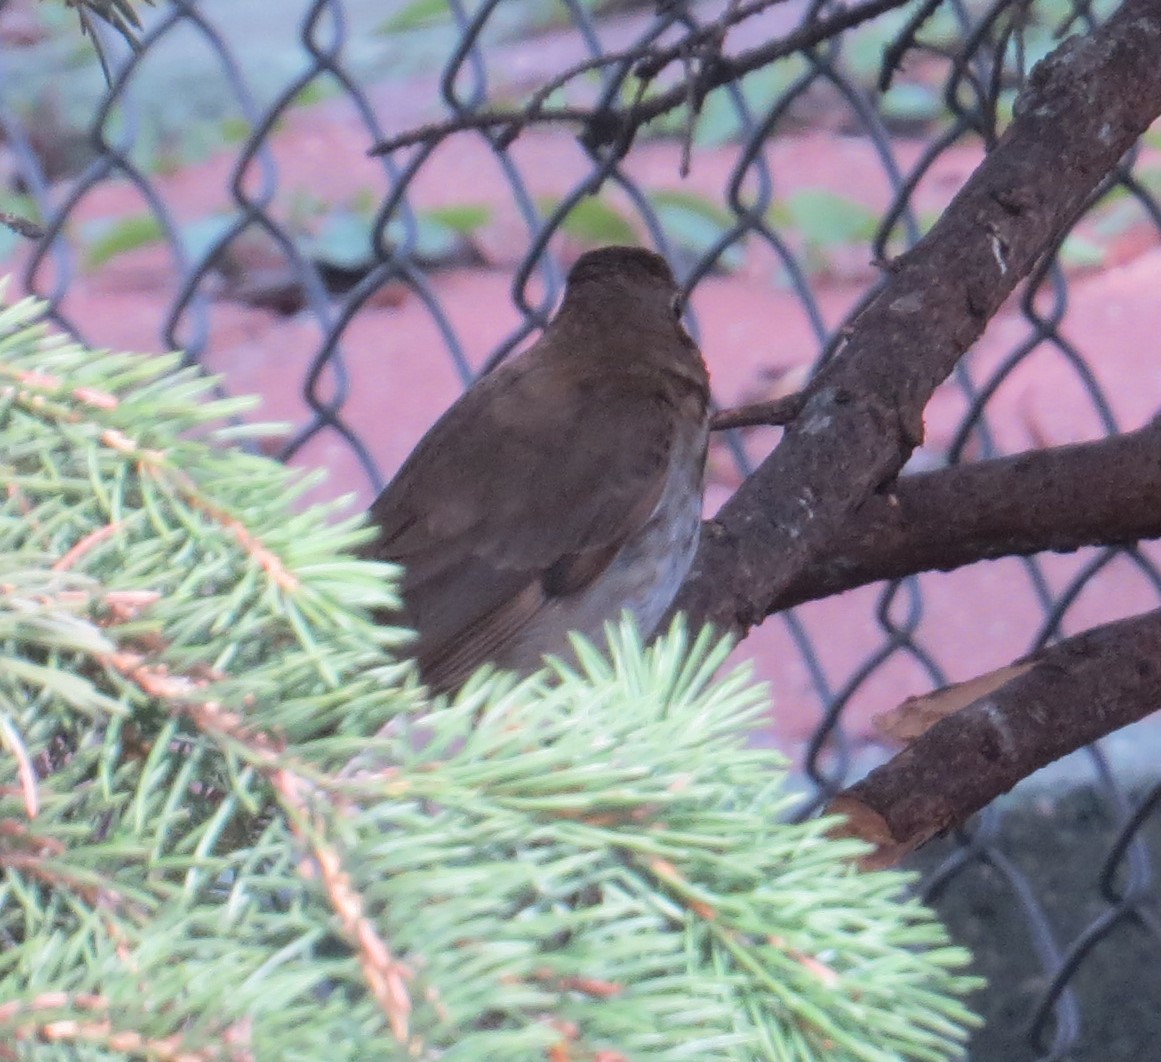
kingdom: Animalia
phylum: Chordata
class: Aves
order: Passeriformes
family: Turdidae
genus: Catharus
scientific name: Catharus guttatus
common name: Hermit thrush
